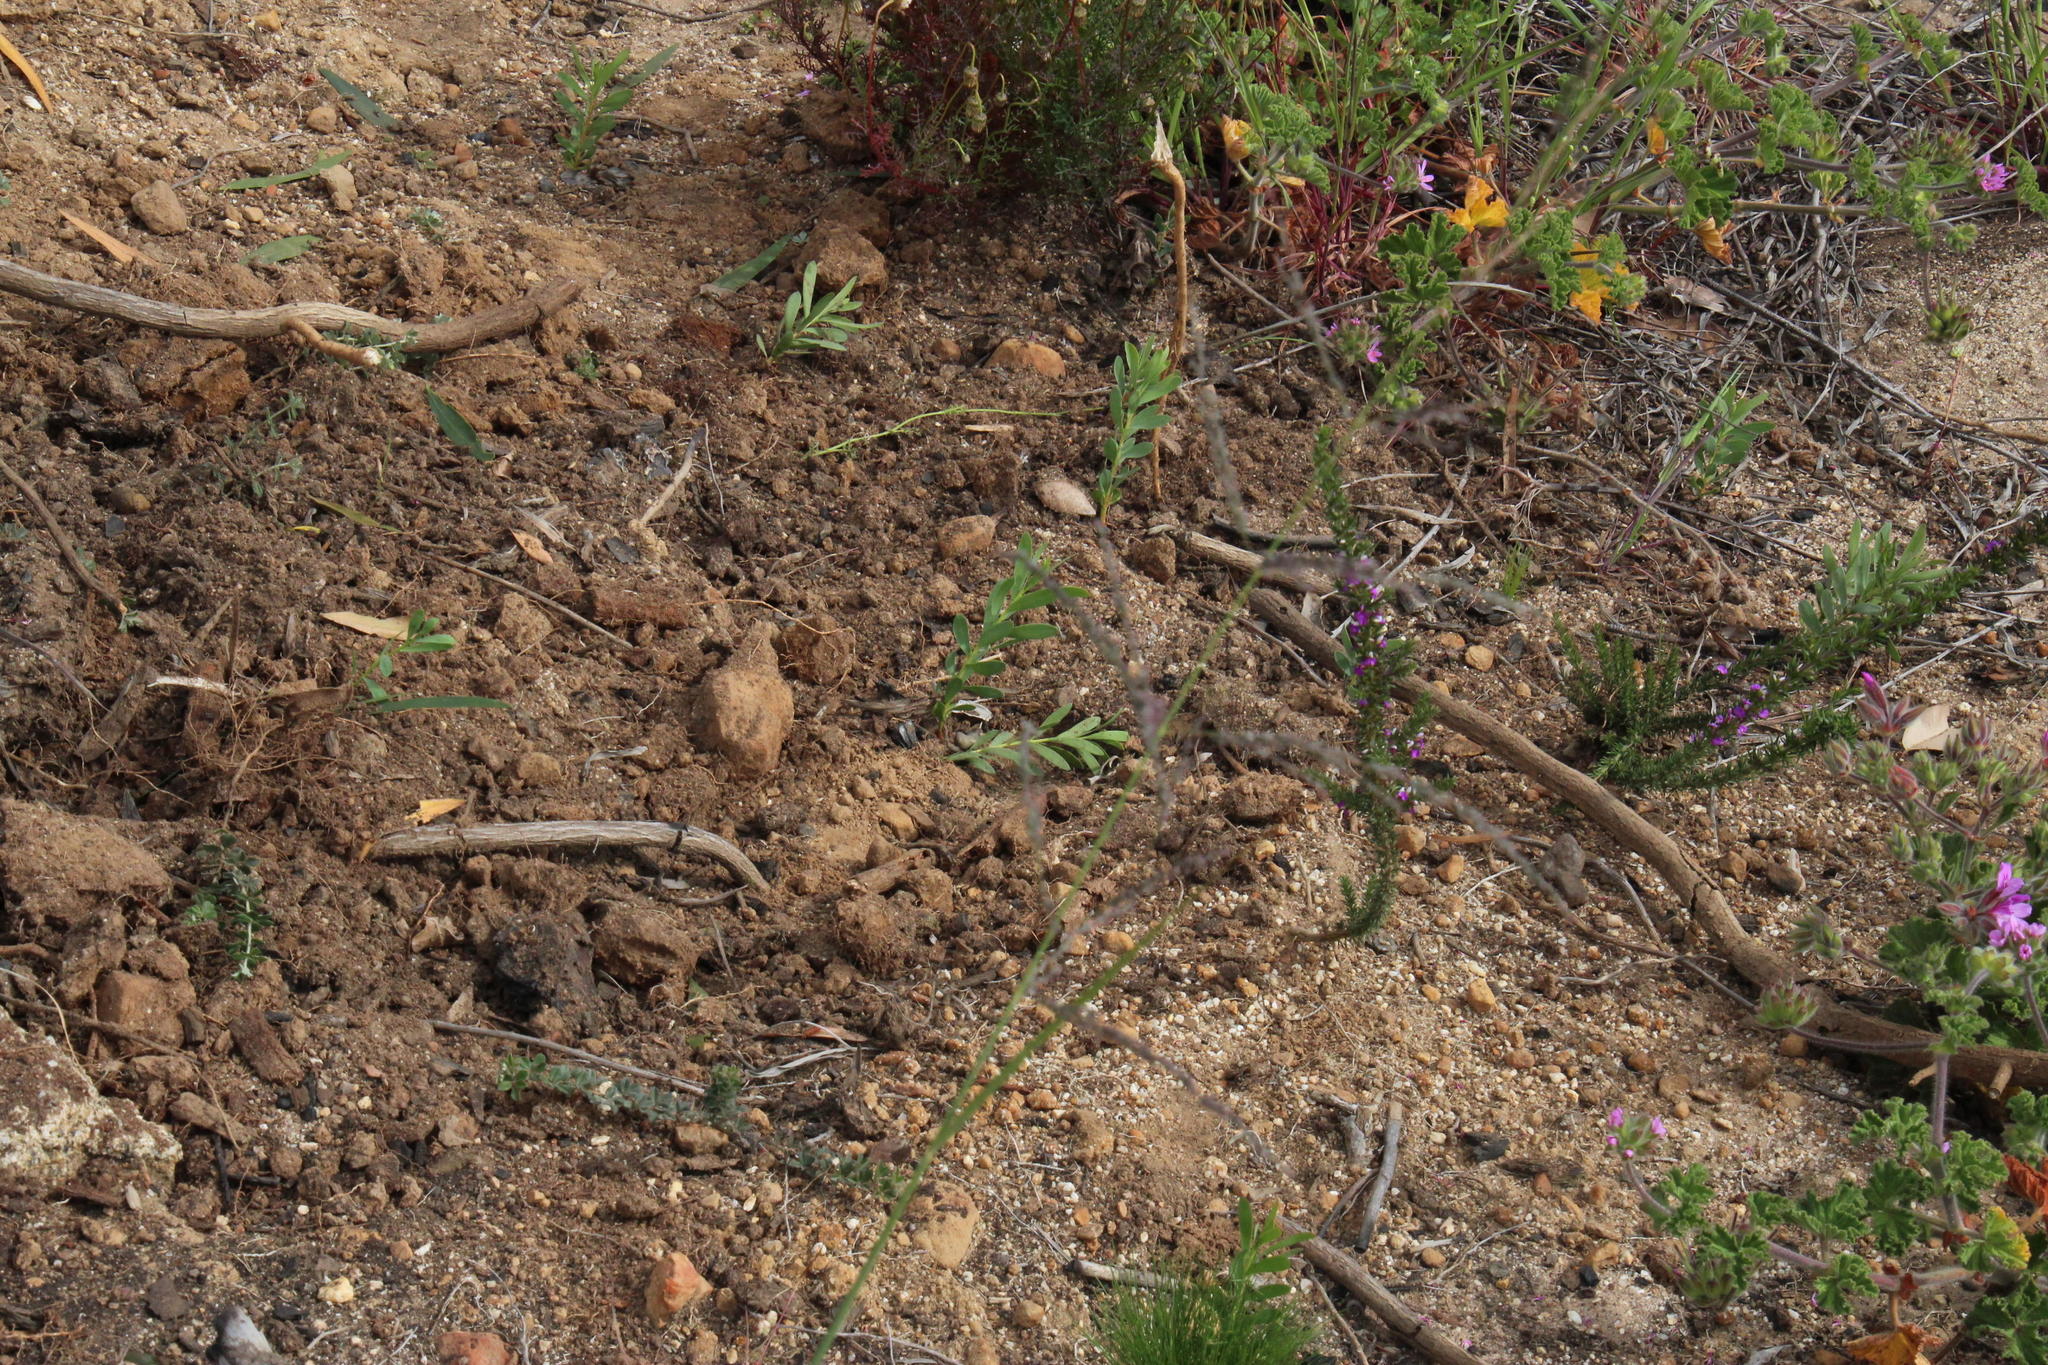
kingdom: Plantae
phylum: Tracheophyta
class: Magnoliopsida
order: Proteales
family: Proteaceae
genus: Protea
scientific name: Protea repens
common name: Sugarbush
